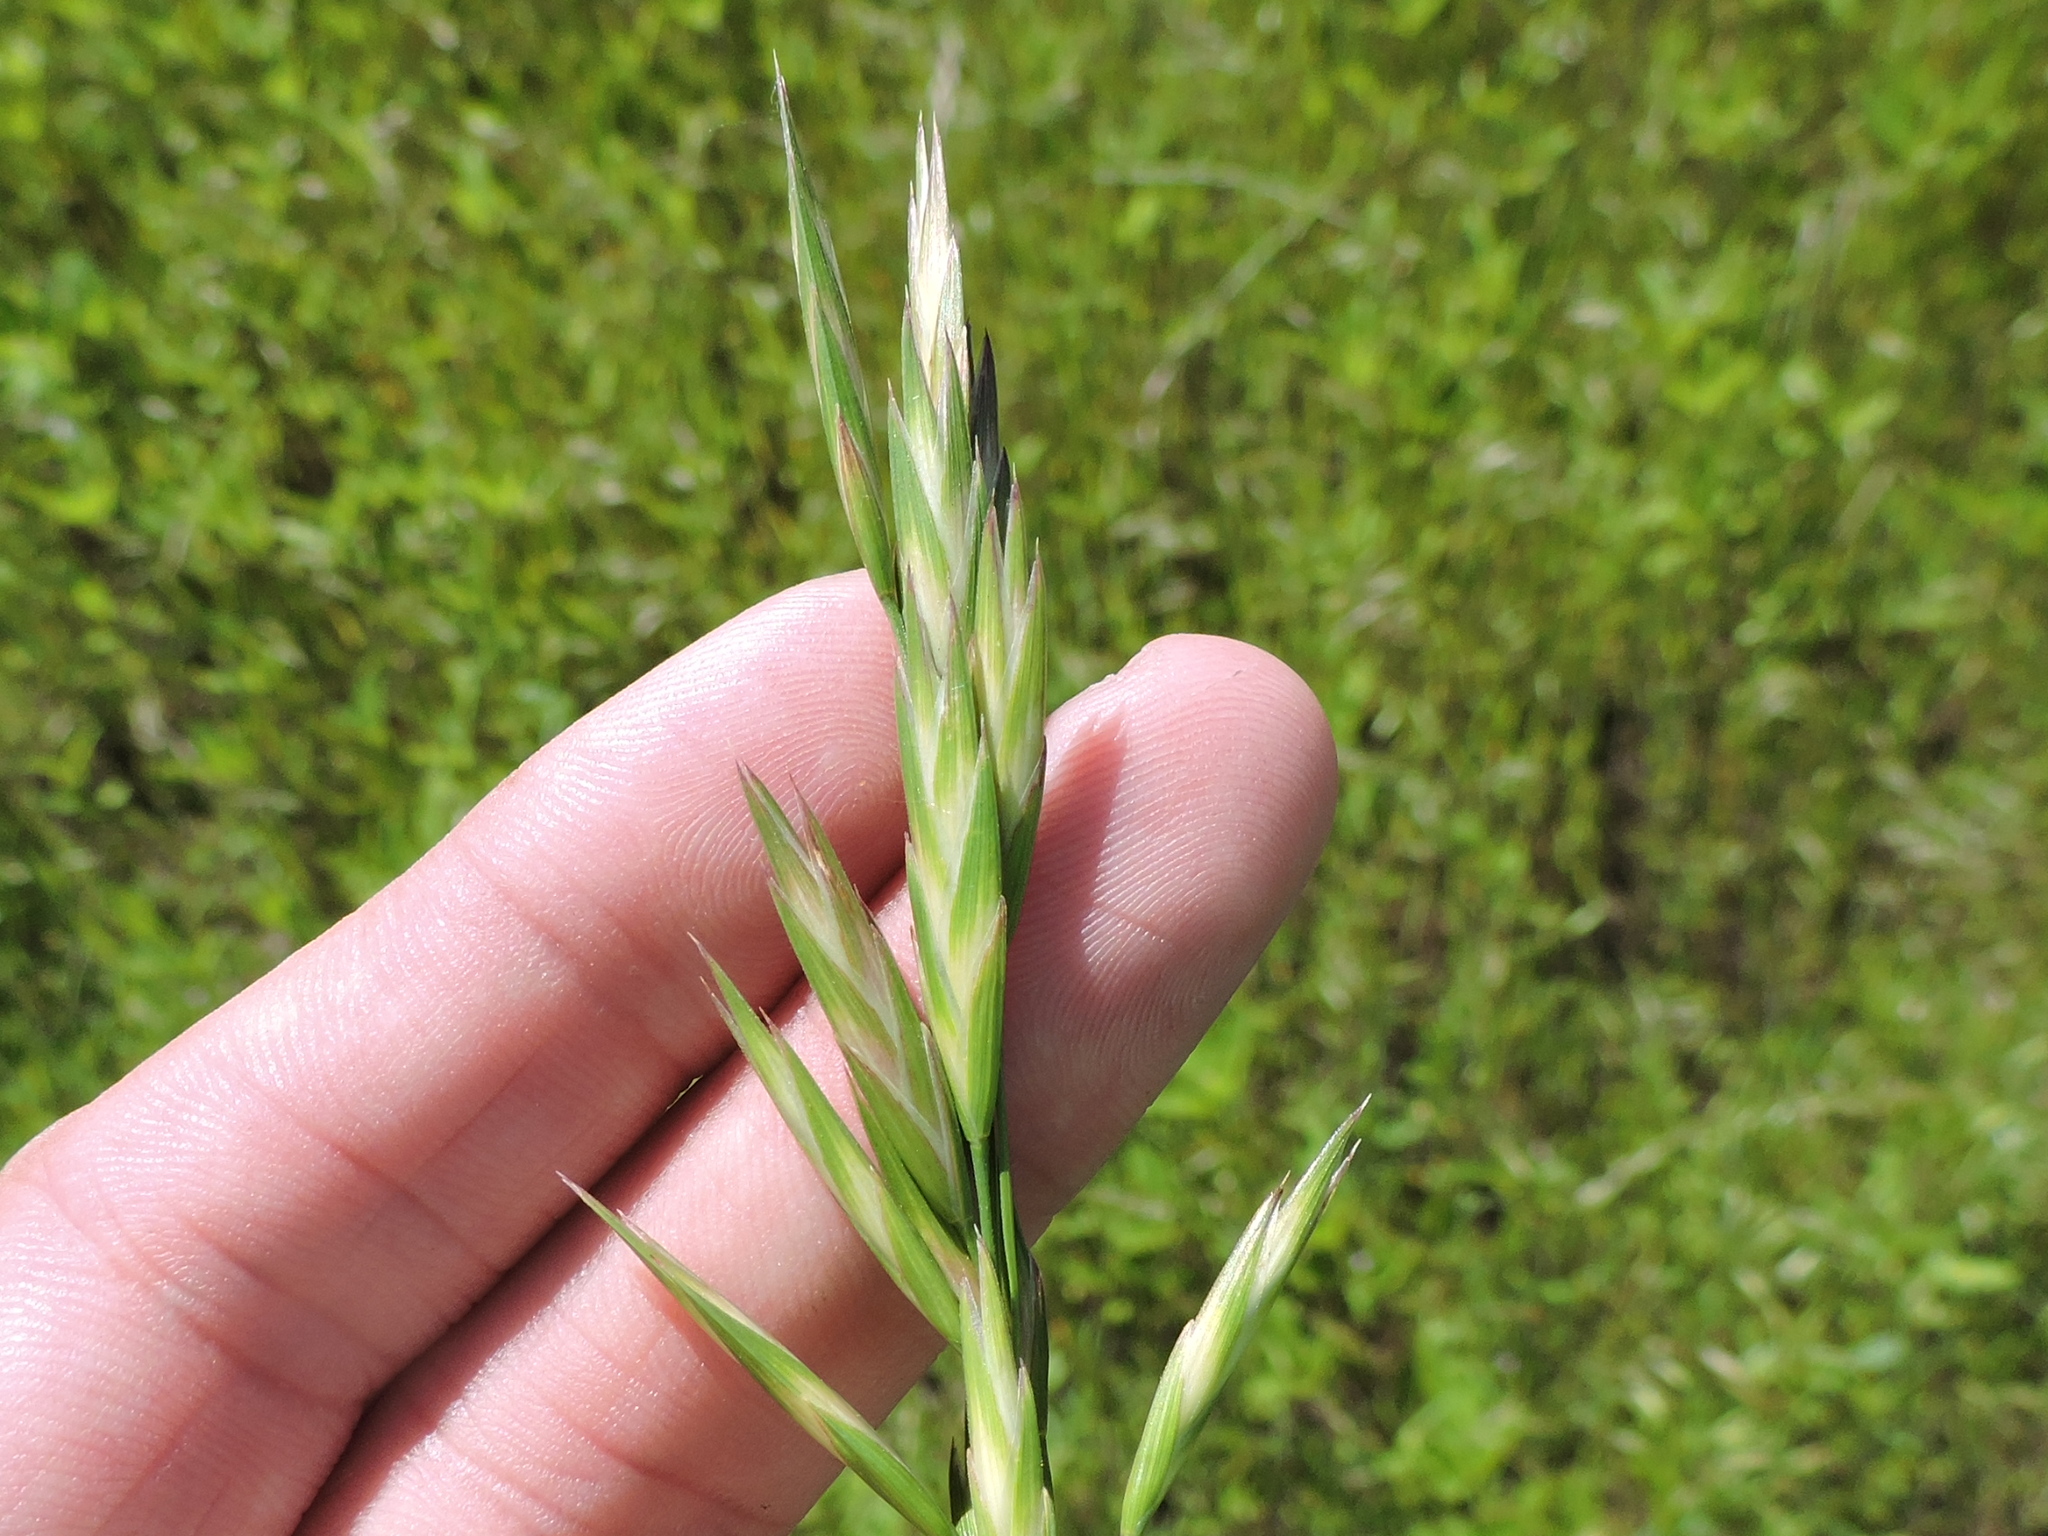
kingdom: Plantae
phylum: Tracheophyta
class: Liliopsida
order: Poales
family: Poaceae
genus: Bromus
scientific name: Bromus catharticus
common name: Rescuegrass
